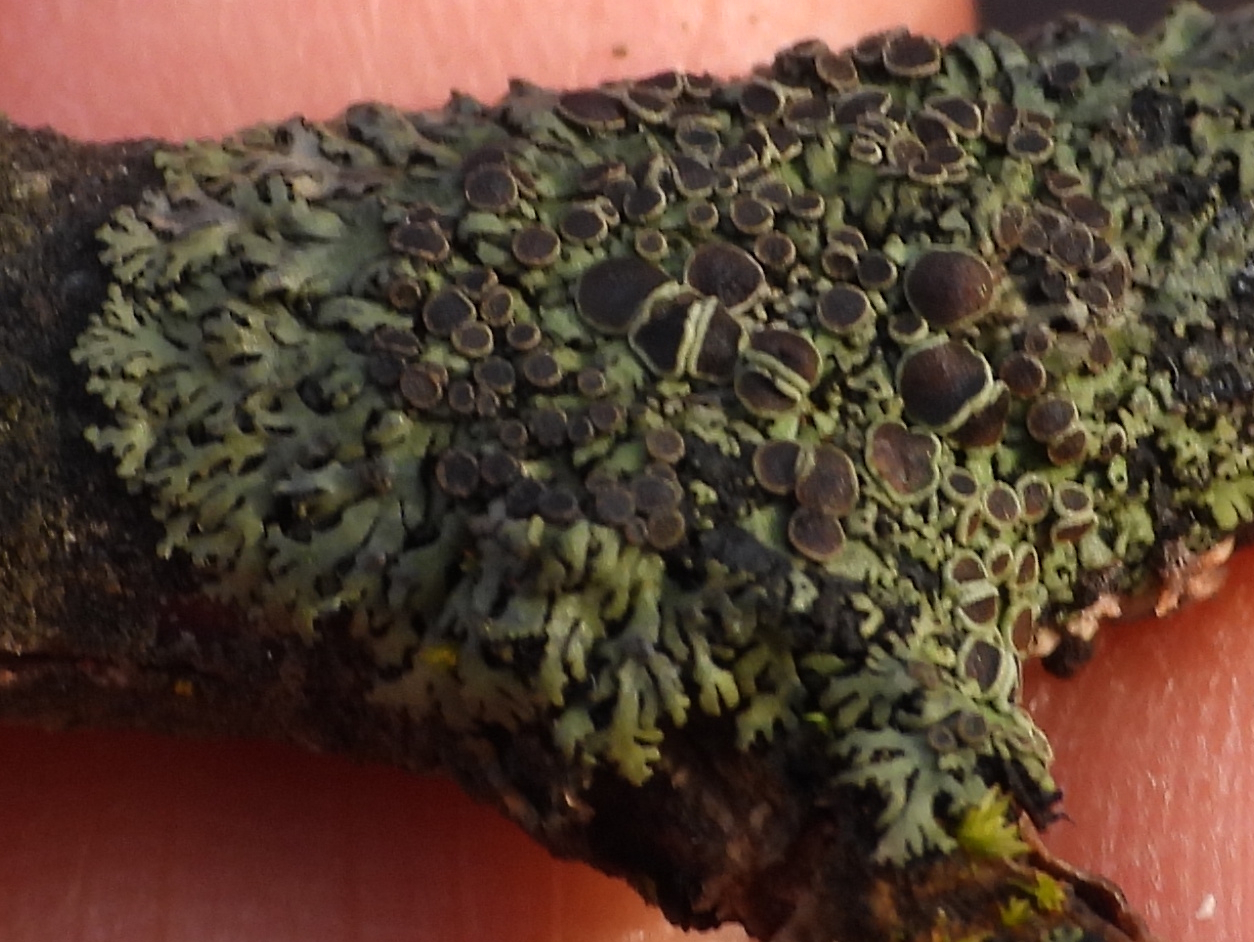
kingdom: Fungi
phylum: Ascomycota
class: Lecanoromycetes
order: Caliciales
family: Physciaceae
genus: Phaeophyscia
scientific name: Phaeophyscia ciliata
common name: Smooth shadow lichen
